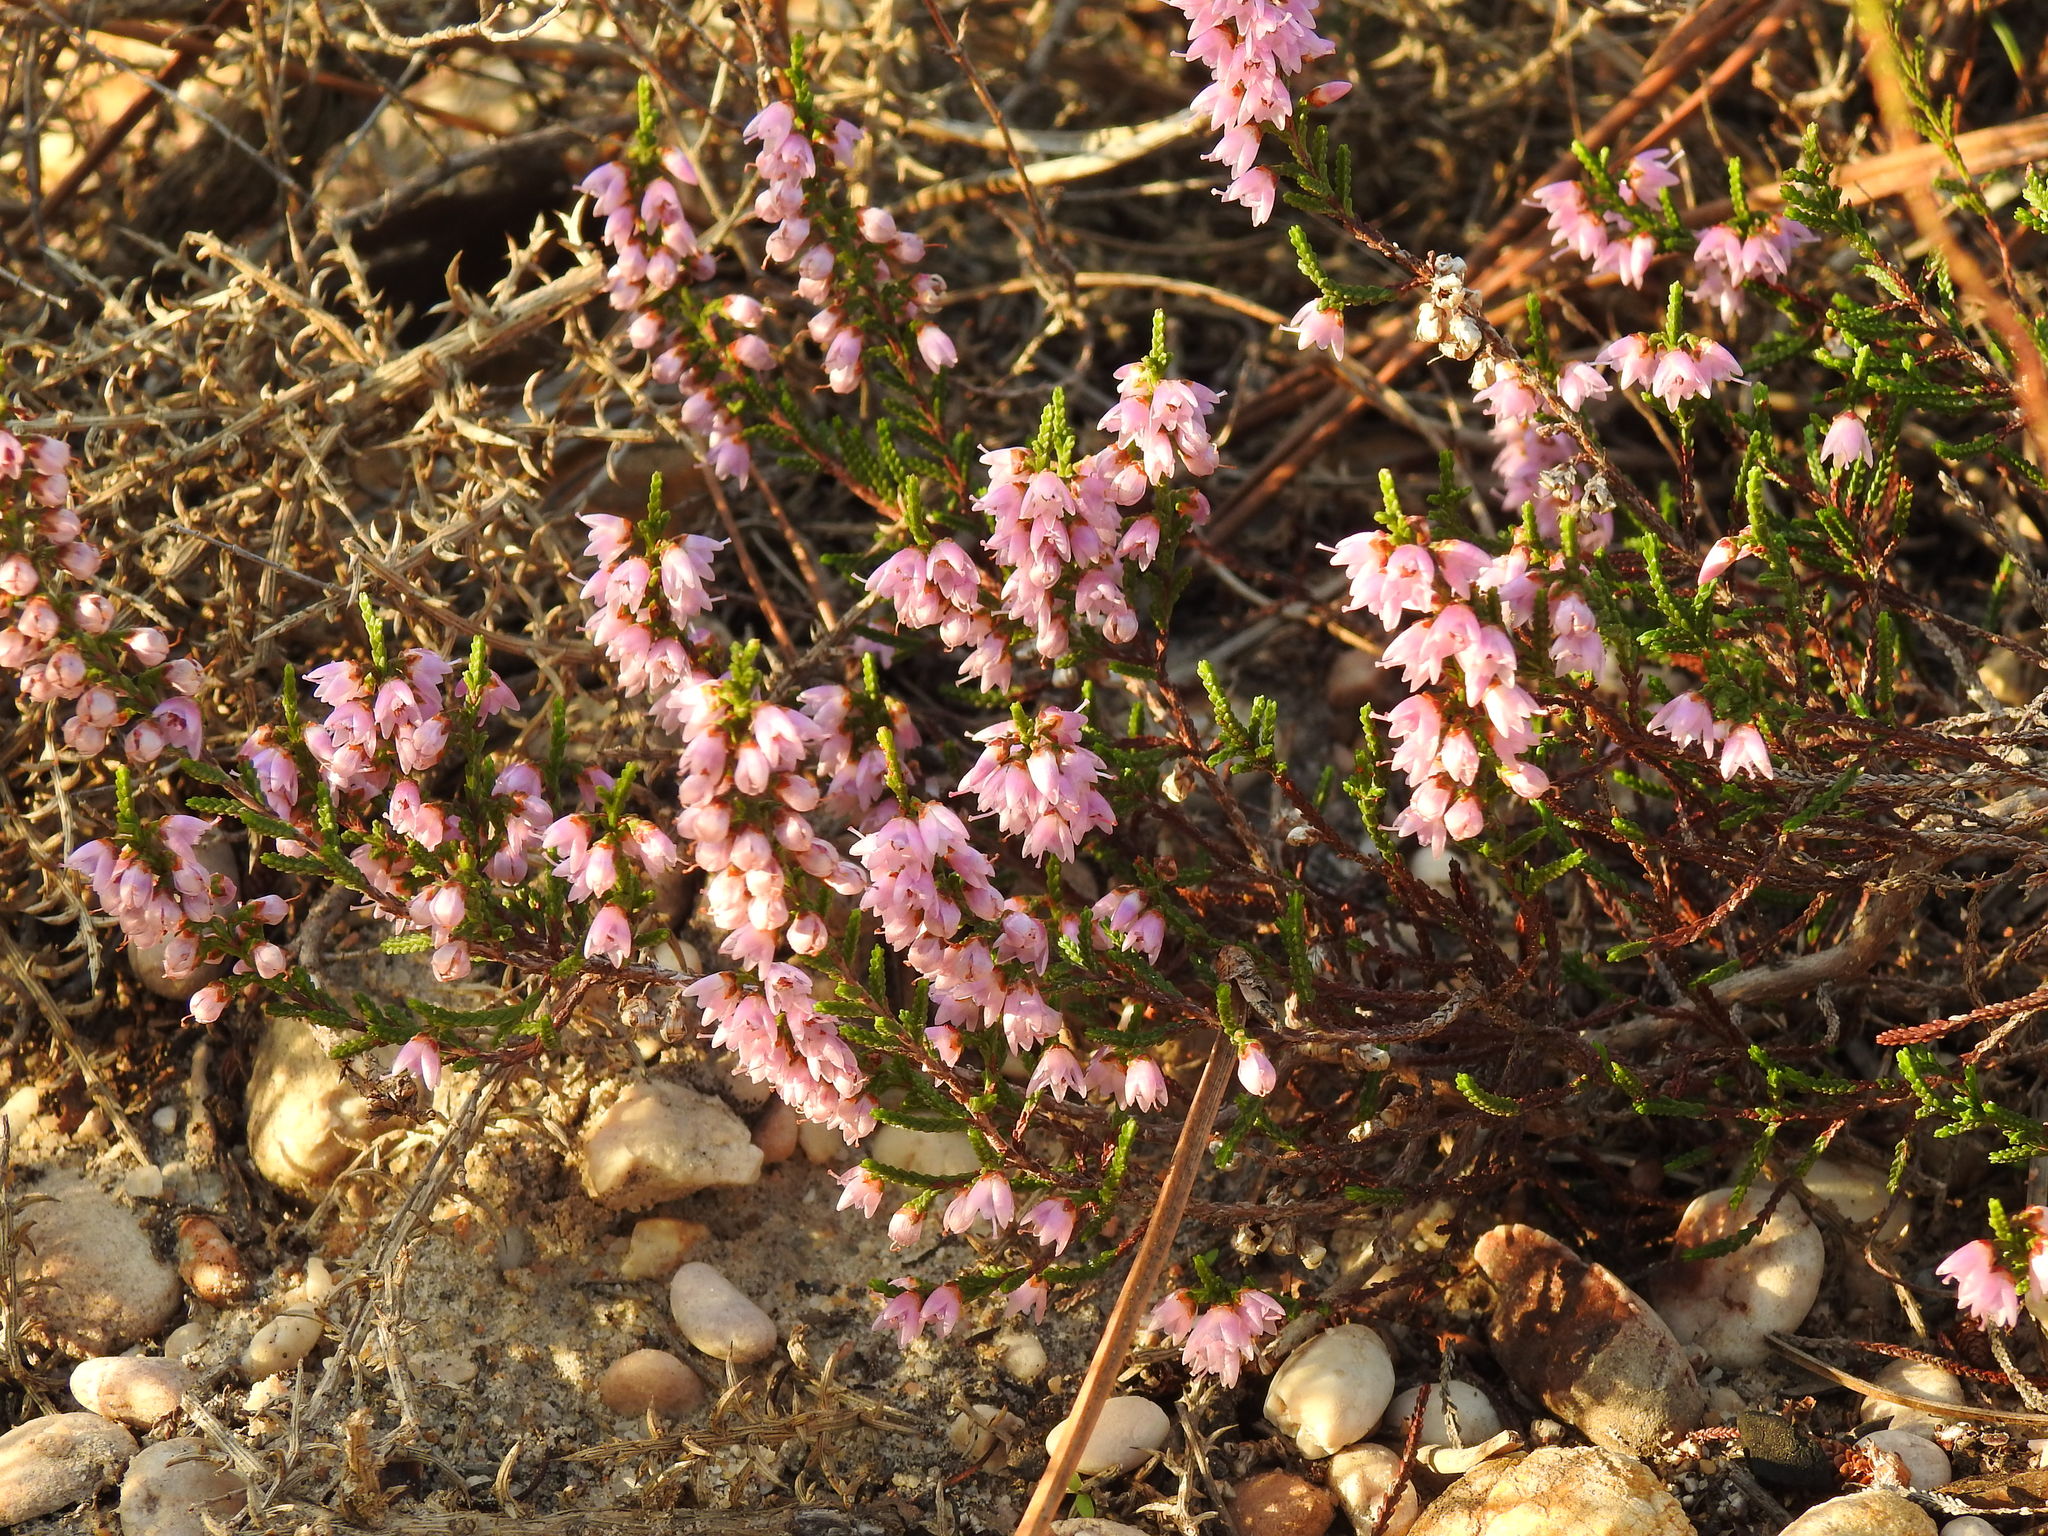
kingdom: Plantae
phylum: Tracheophyta
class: Magnoliopsida
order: Ericales
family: Ericaceae
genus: Calluna
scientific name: Calluna vulgaris
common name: Heather
